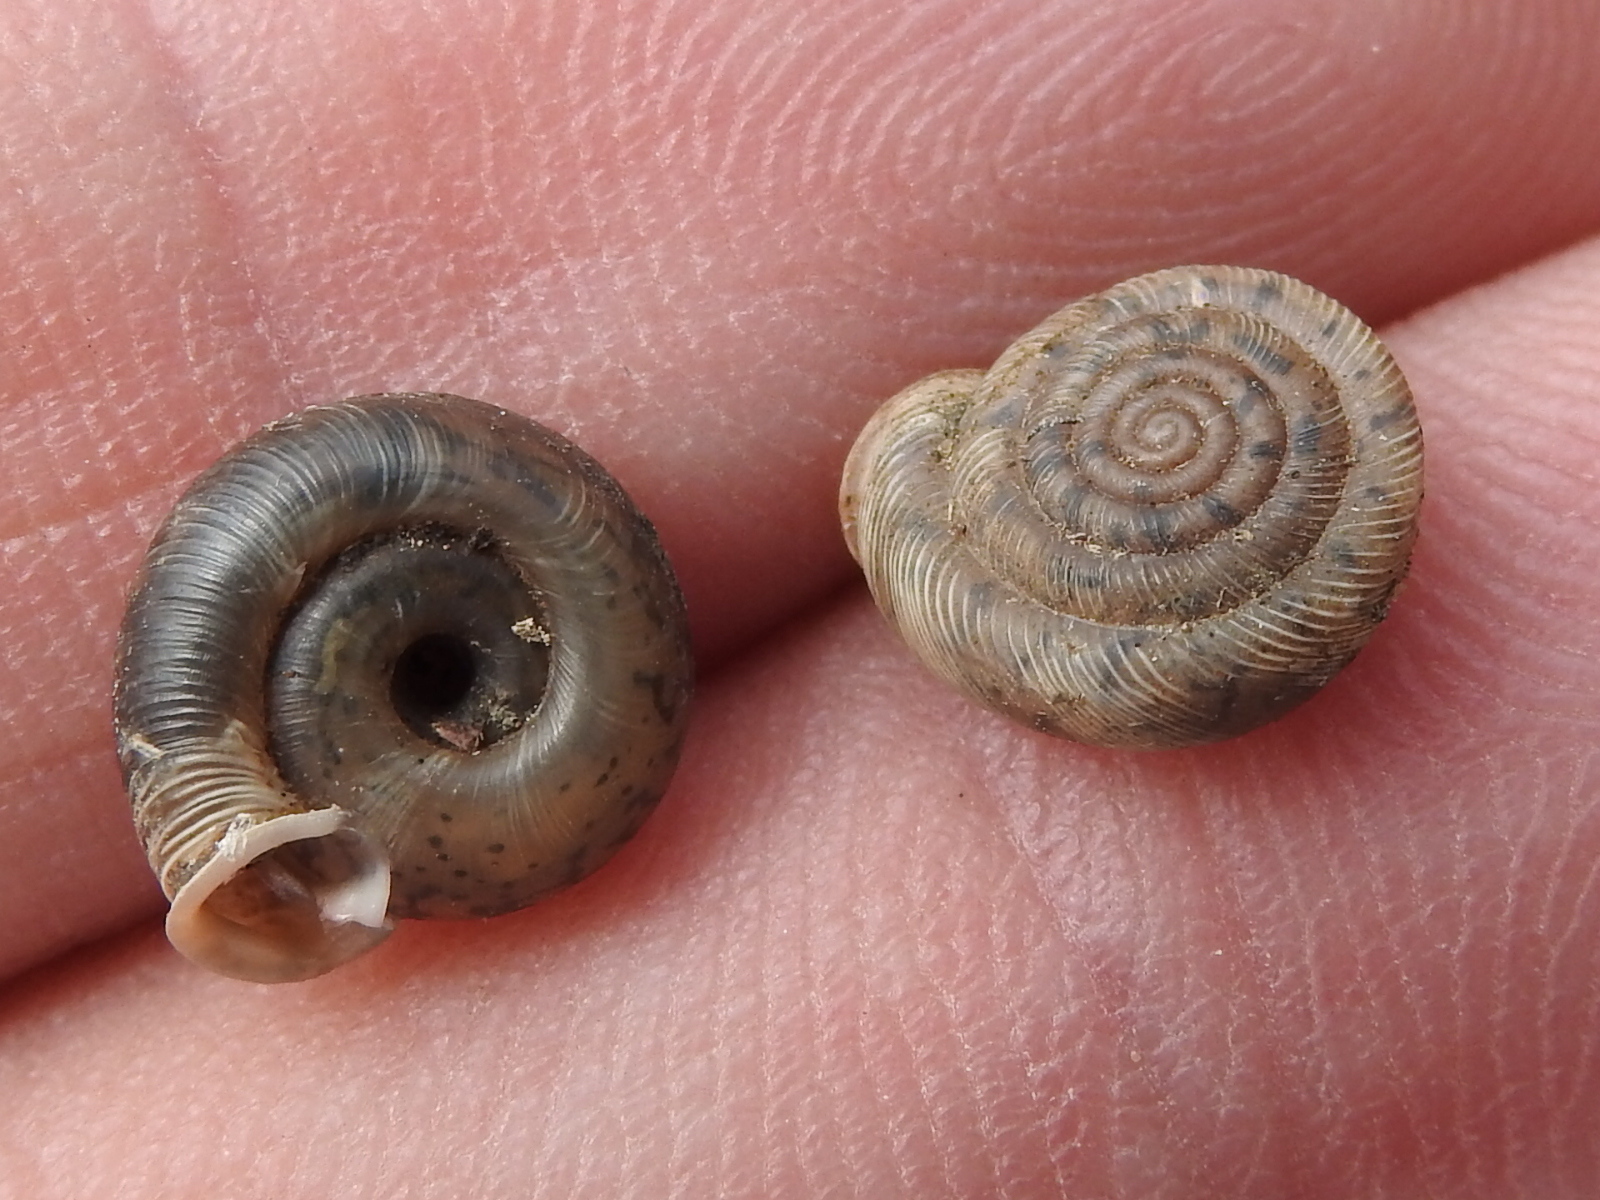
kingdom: Animalia
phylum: Mollusca
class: Gastropoda
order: Stylommatophora
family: Polygyridae
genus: Polygyra
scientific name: Polygyra cereolus
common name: Southern flatcone snail
